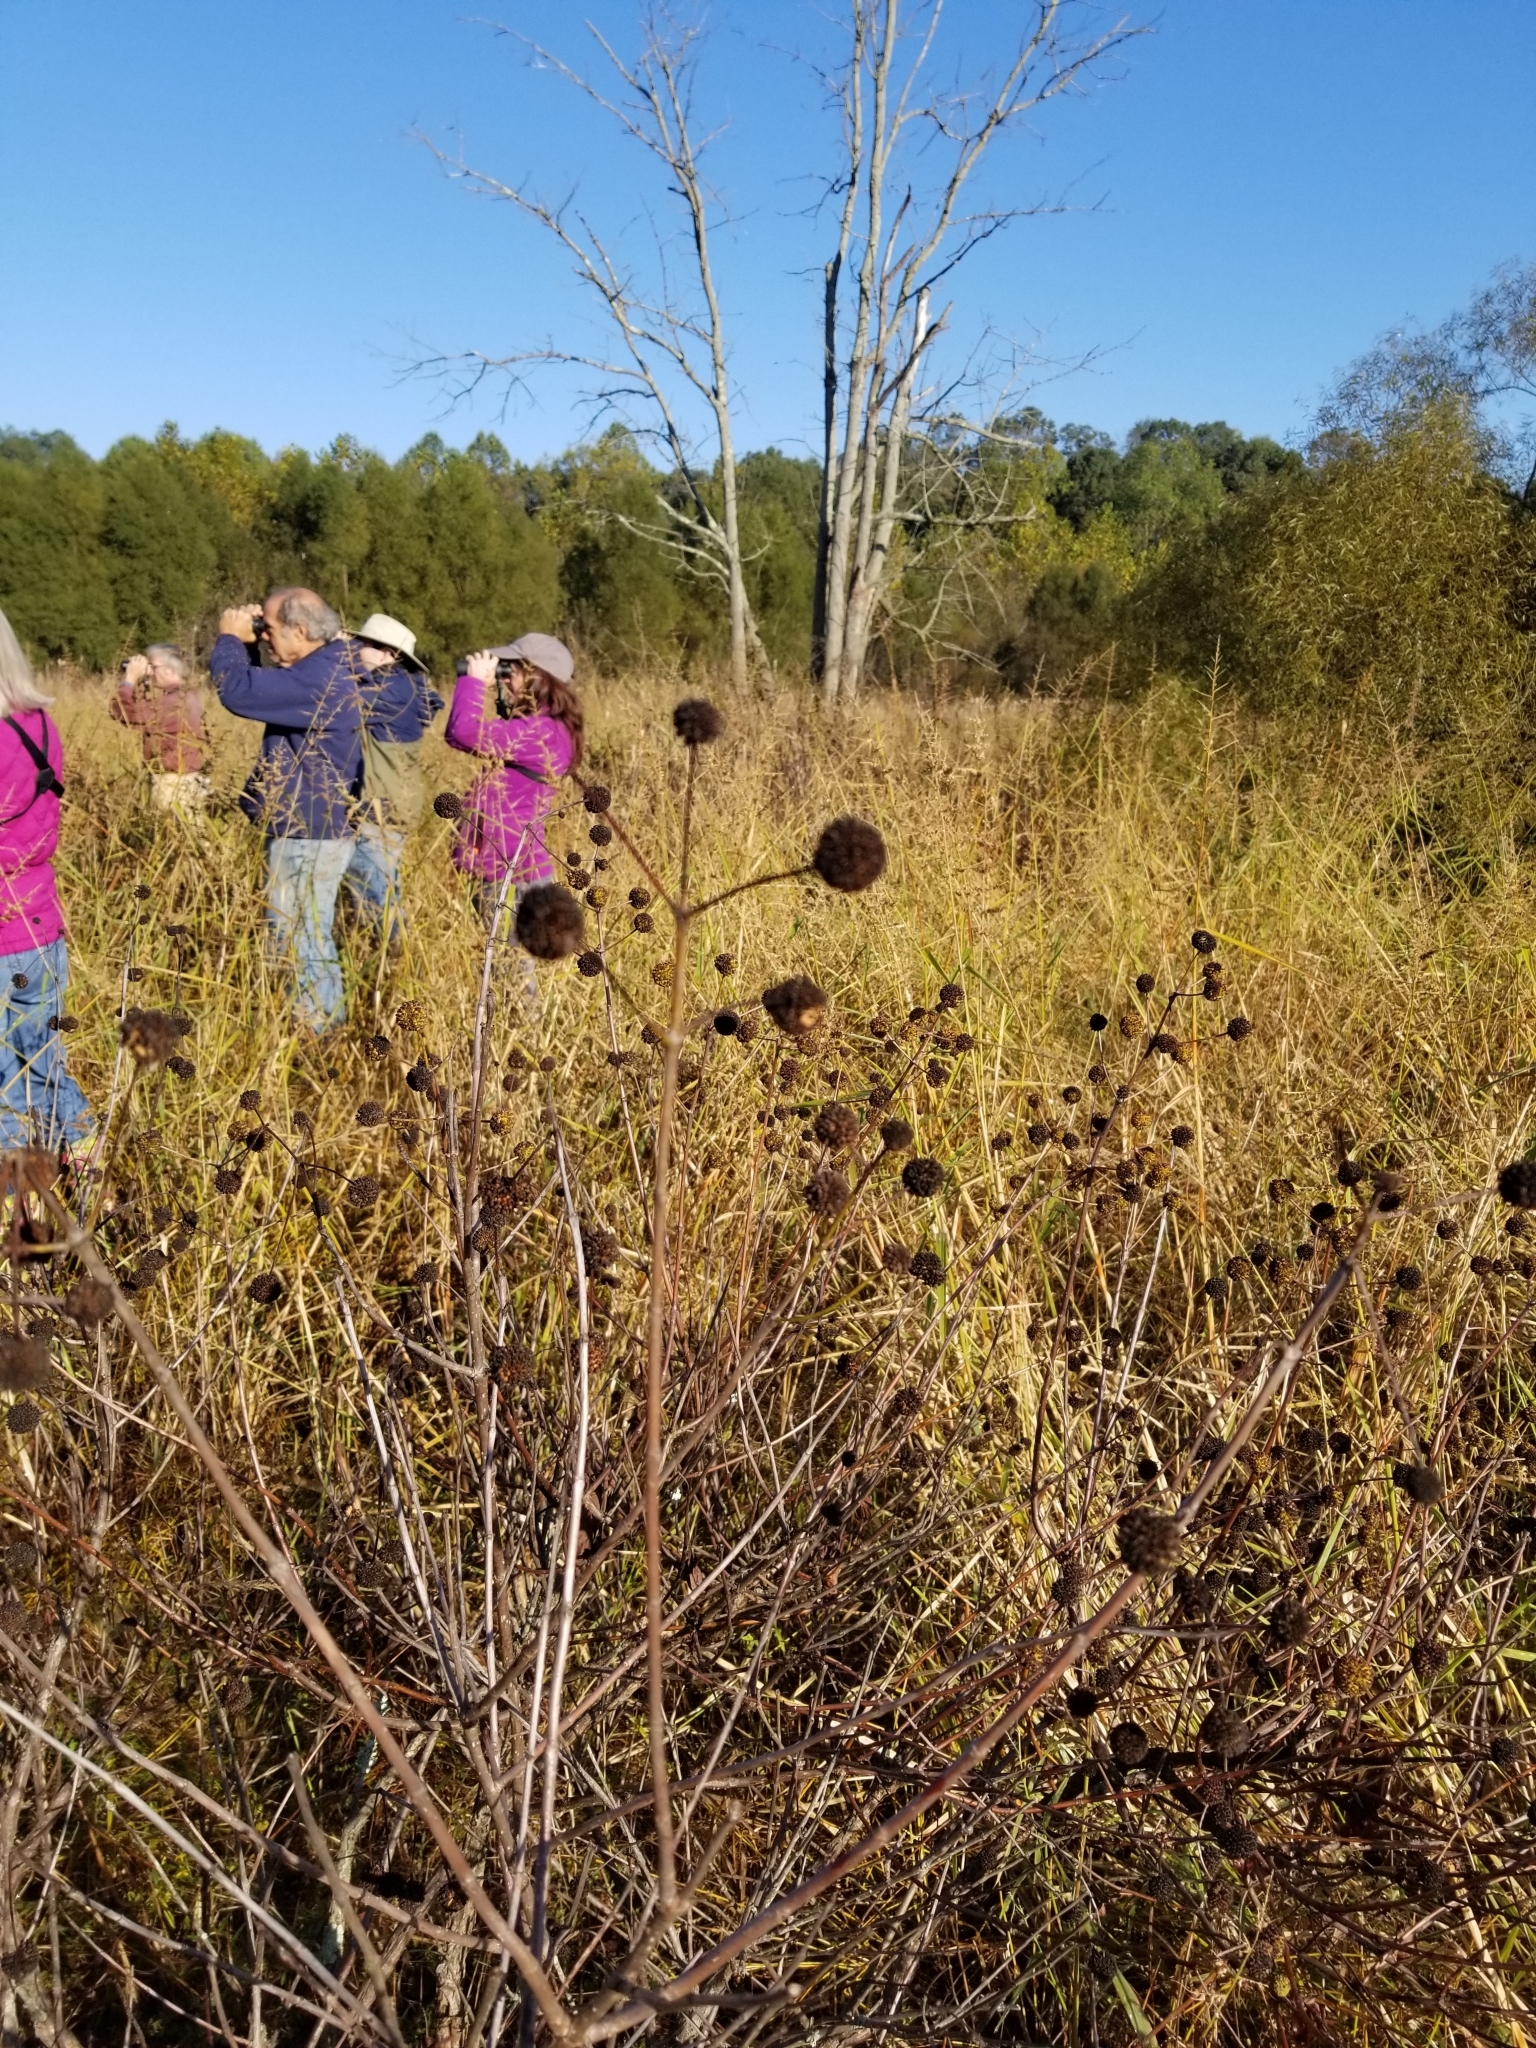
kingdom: Plantae
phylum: Tracheophyta
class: Magnoliopsida
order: Gentianales
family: Rubiaceae
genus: Cephalanthus
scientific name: Cephalanthus occidentalis
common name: Button-willow
